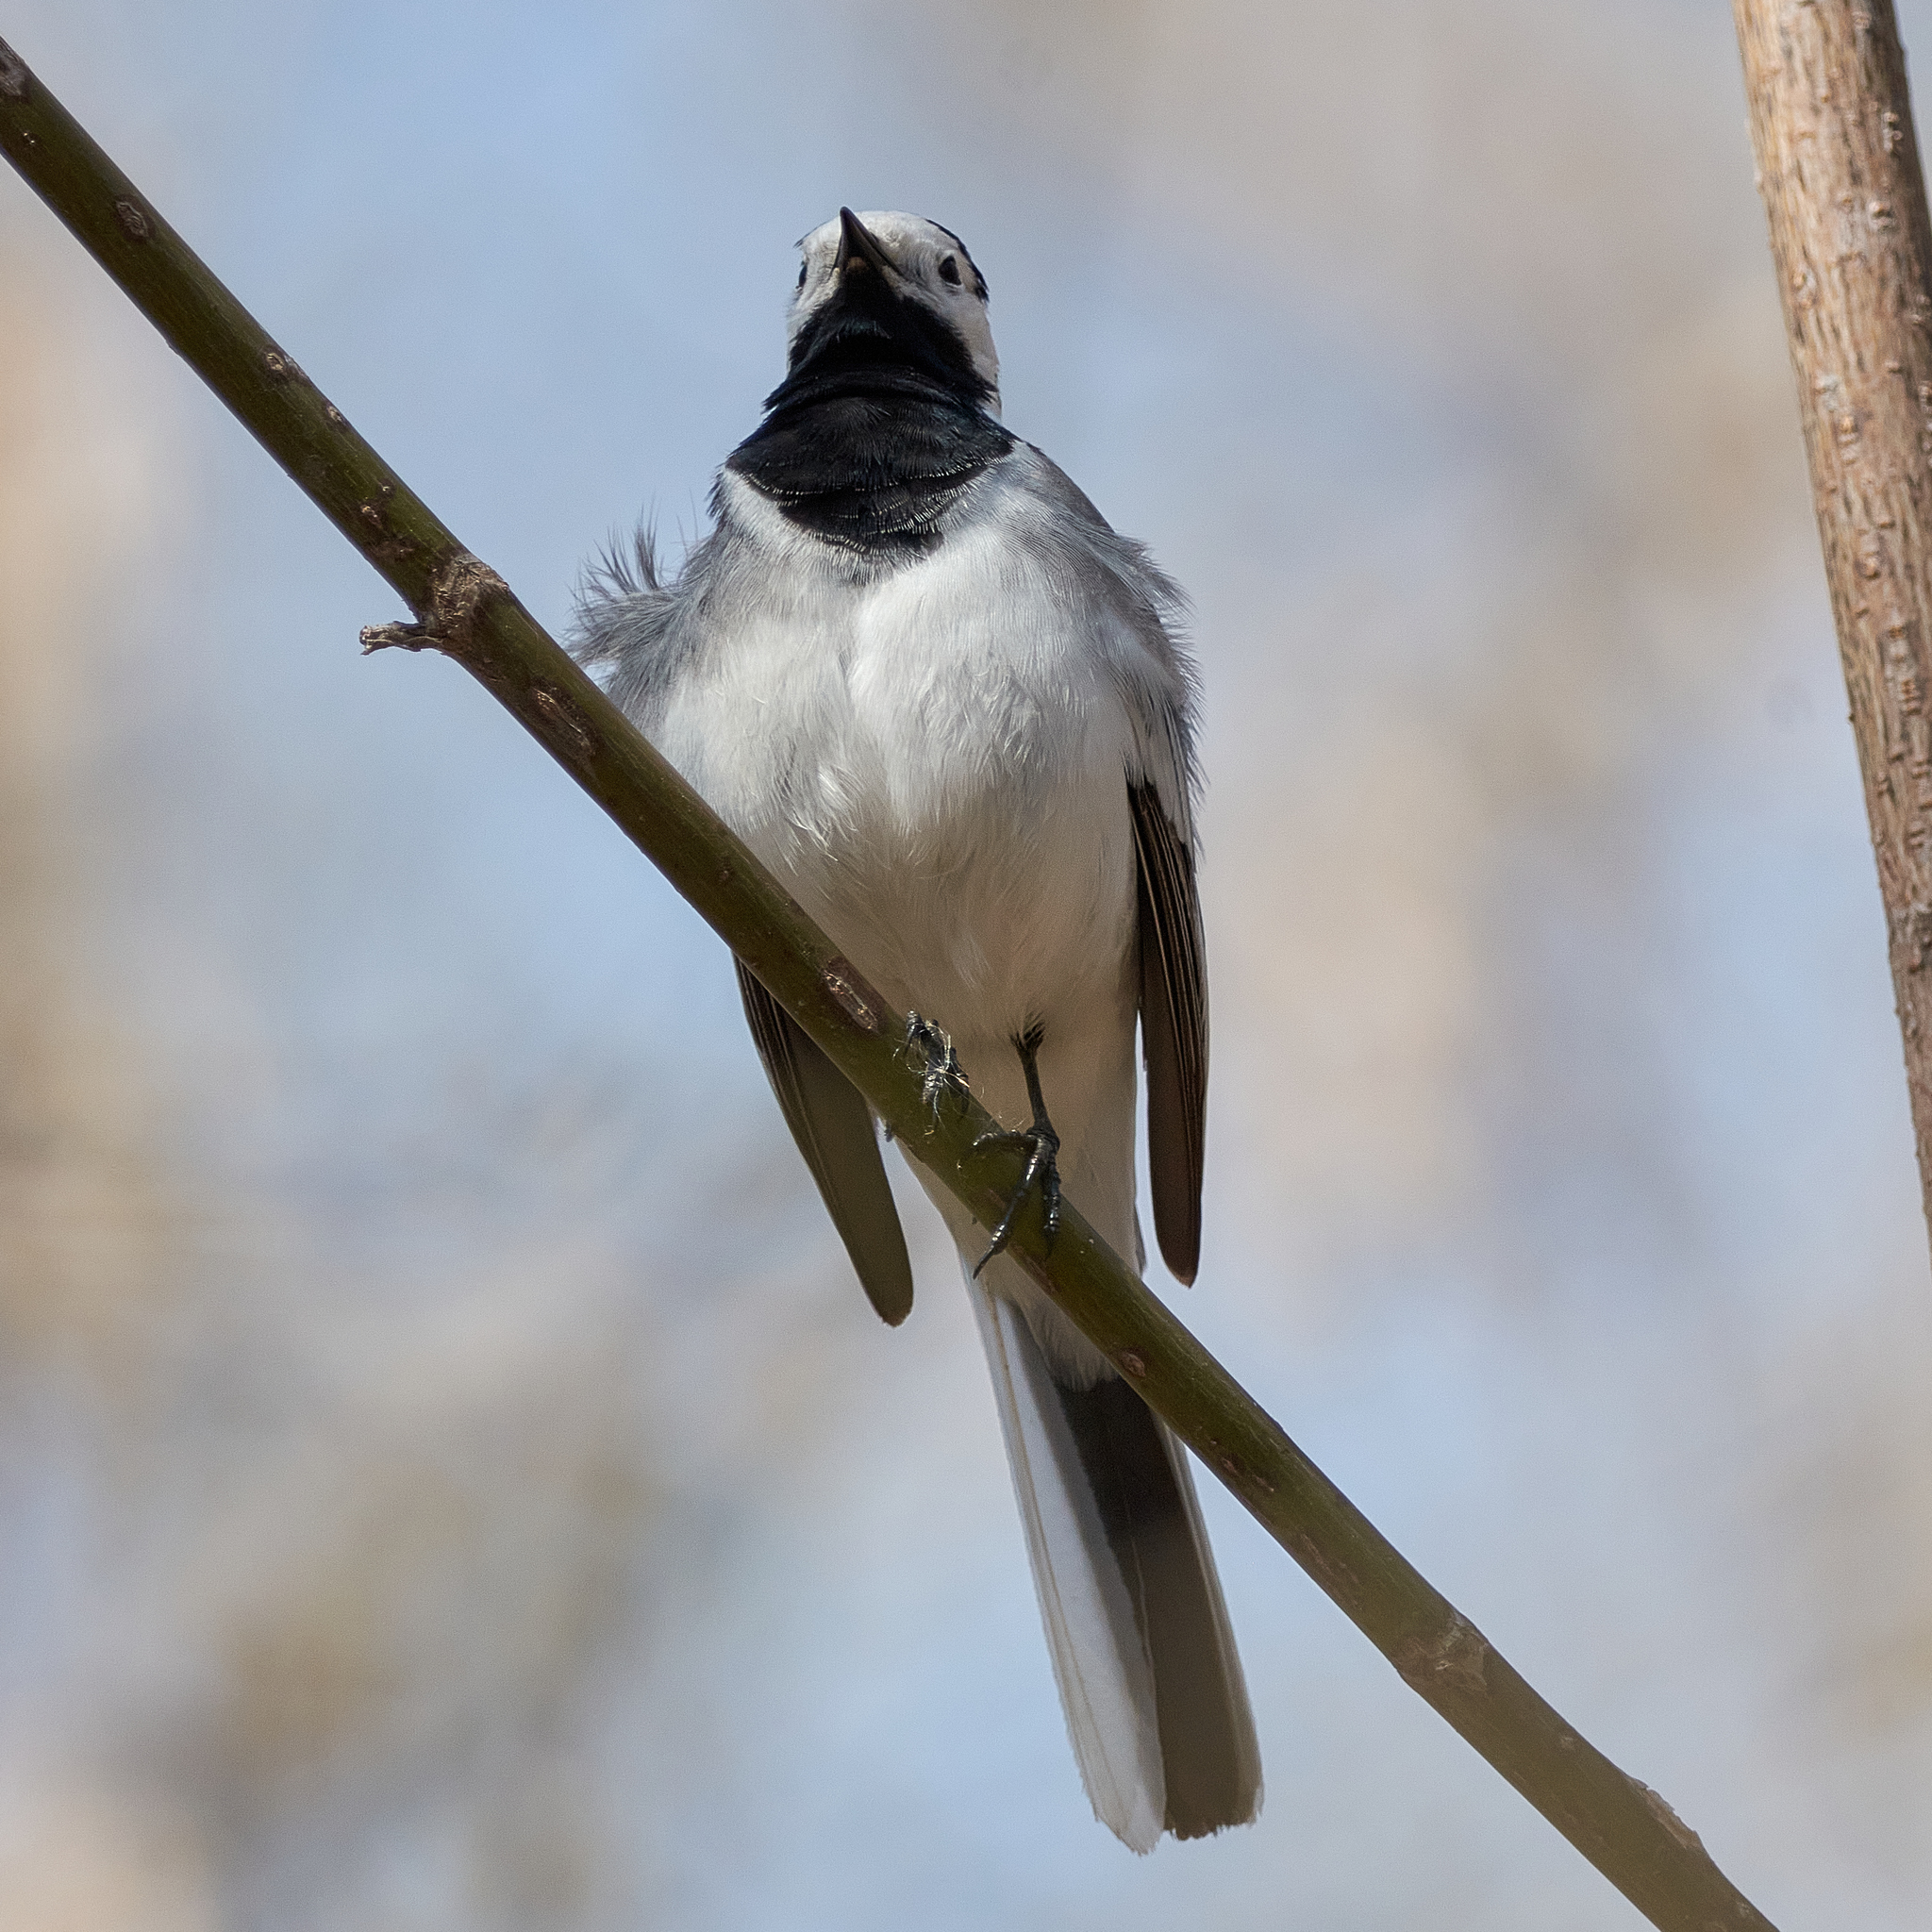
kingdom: Animalia
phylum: Chordata
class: Aves
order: Passeriformes
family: Motacillidae
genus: Motacilla
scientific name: Motacilla alba
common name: White wagtail
